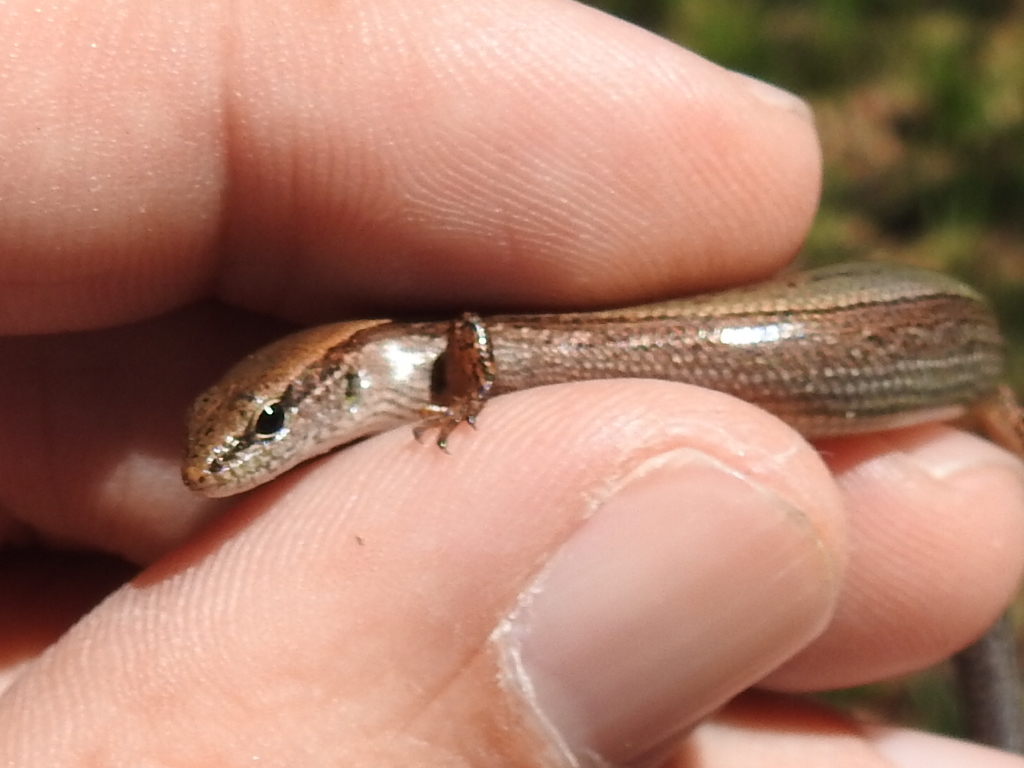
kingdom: Animalia
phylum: Chordata
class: Squamata
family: Scincidae
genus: Scincella
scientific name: Scincella lateralis
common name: Ground skink
